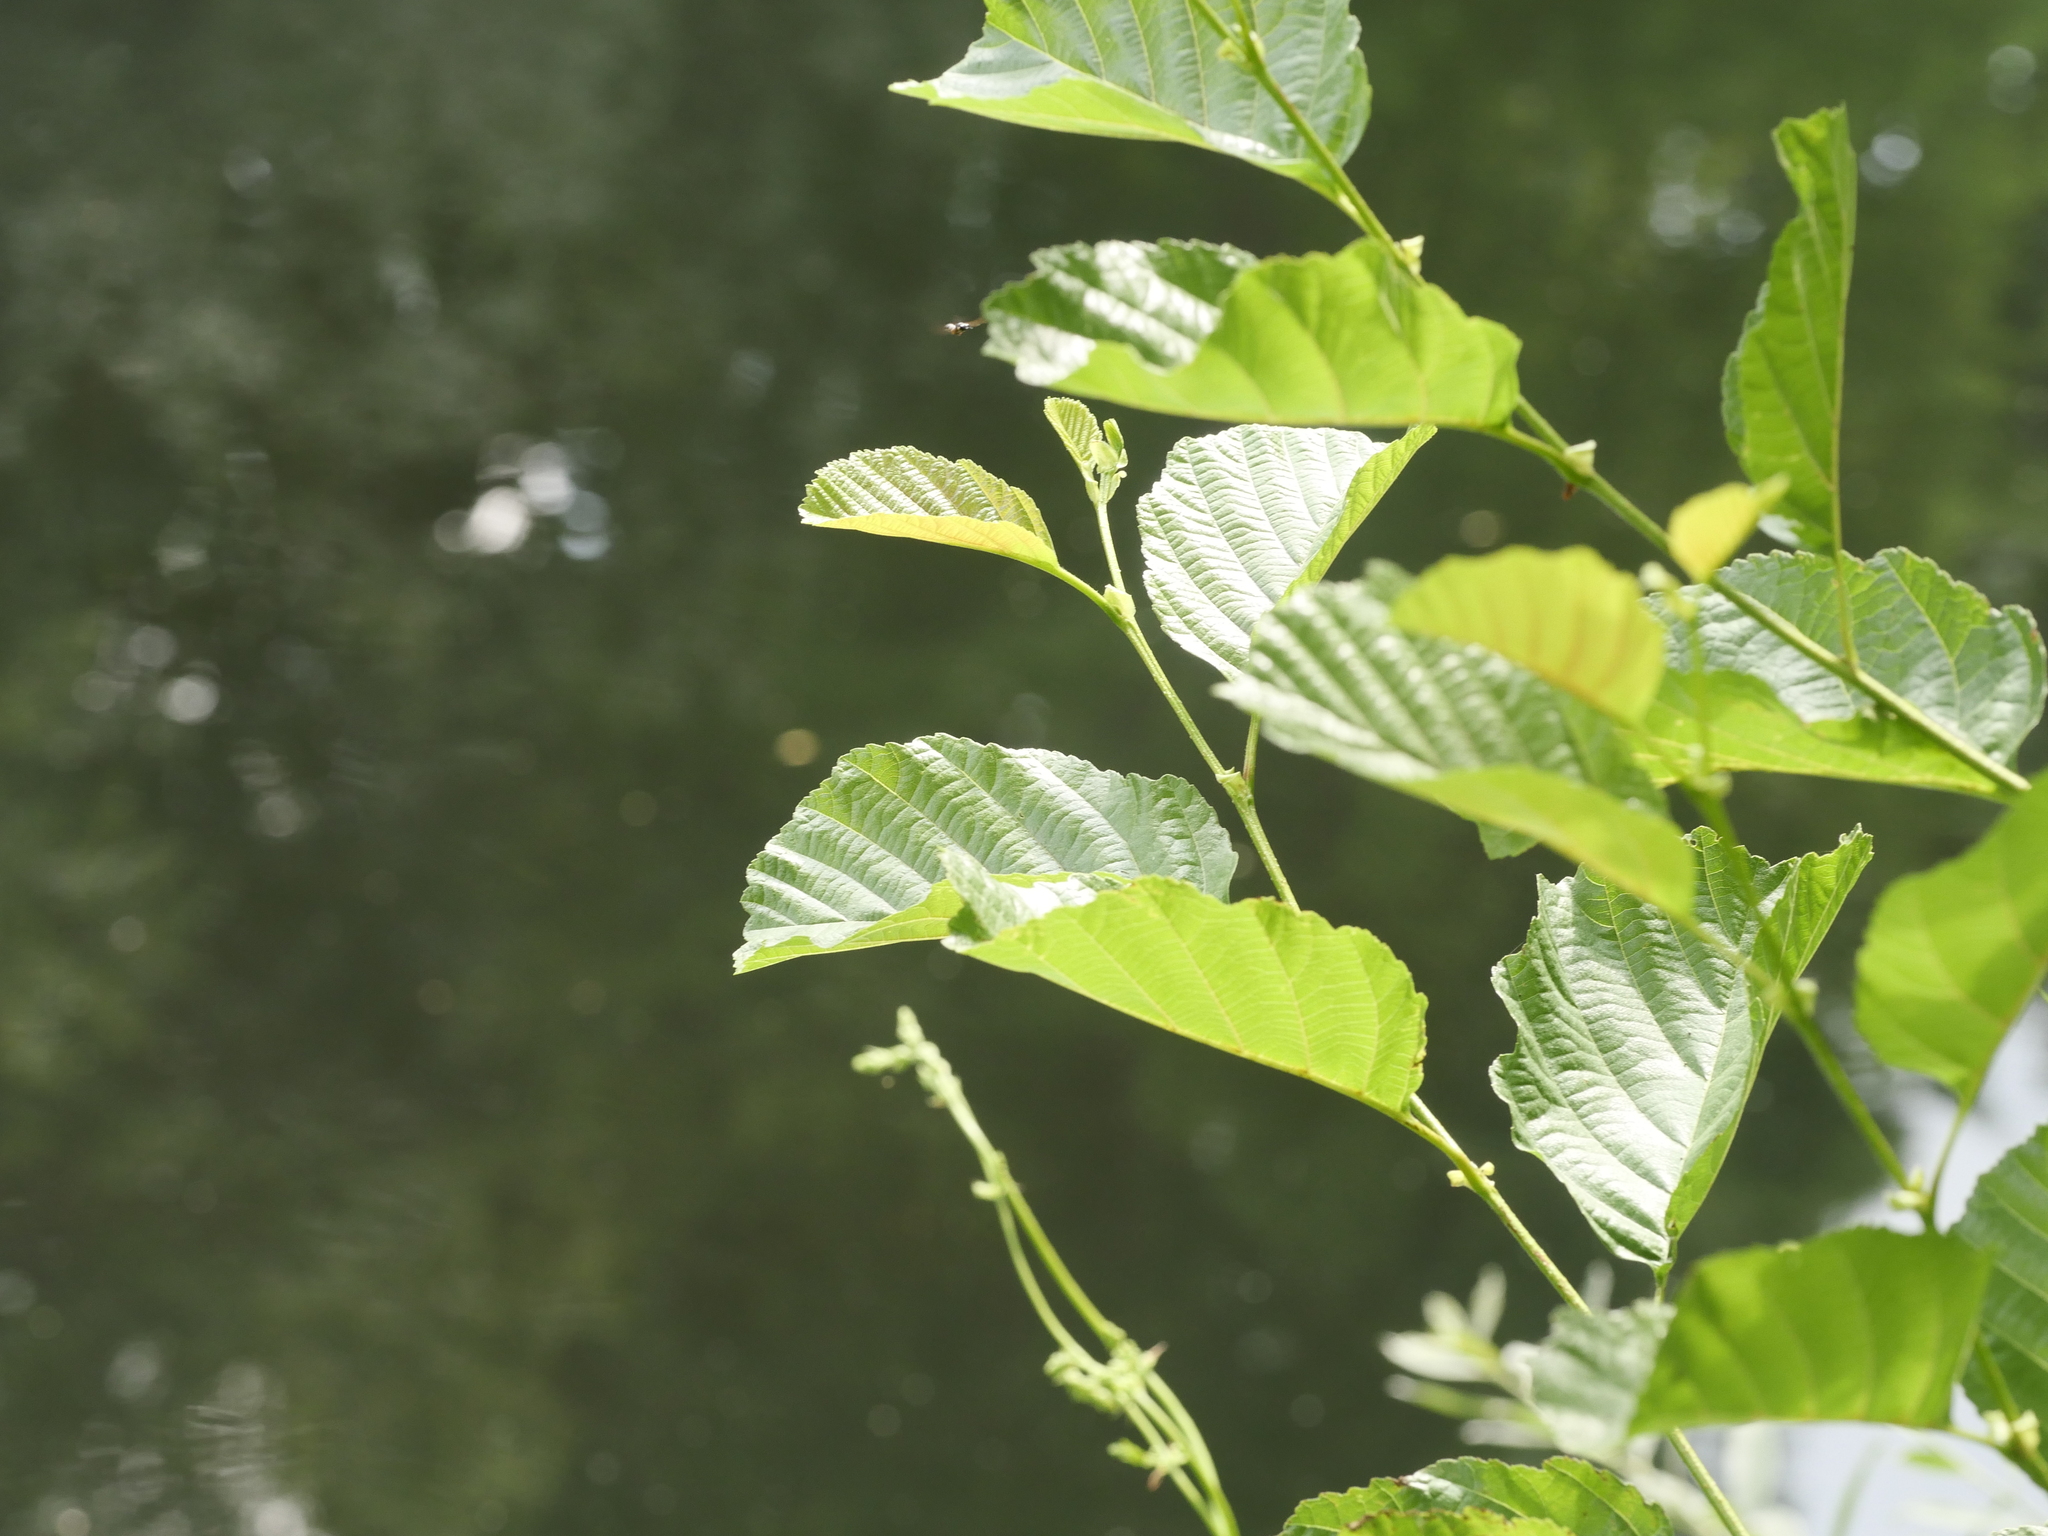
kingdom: Plantae
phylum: Tracheophyta
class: Magnoliopsida
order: Fagales
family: Betulaceae
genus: Alnus
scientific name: Alnus glutinosa
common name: Black alder
